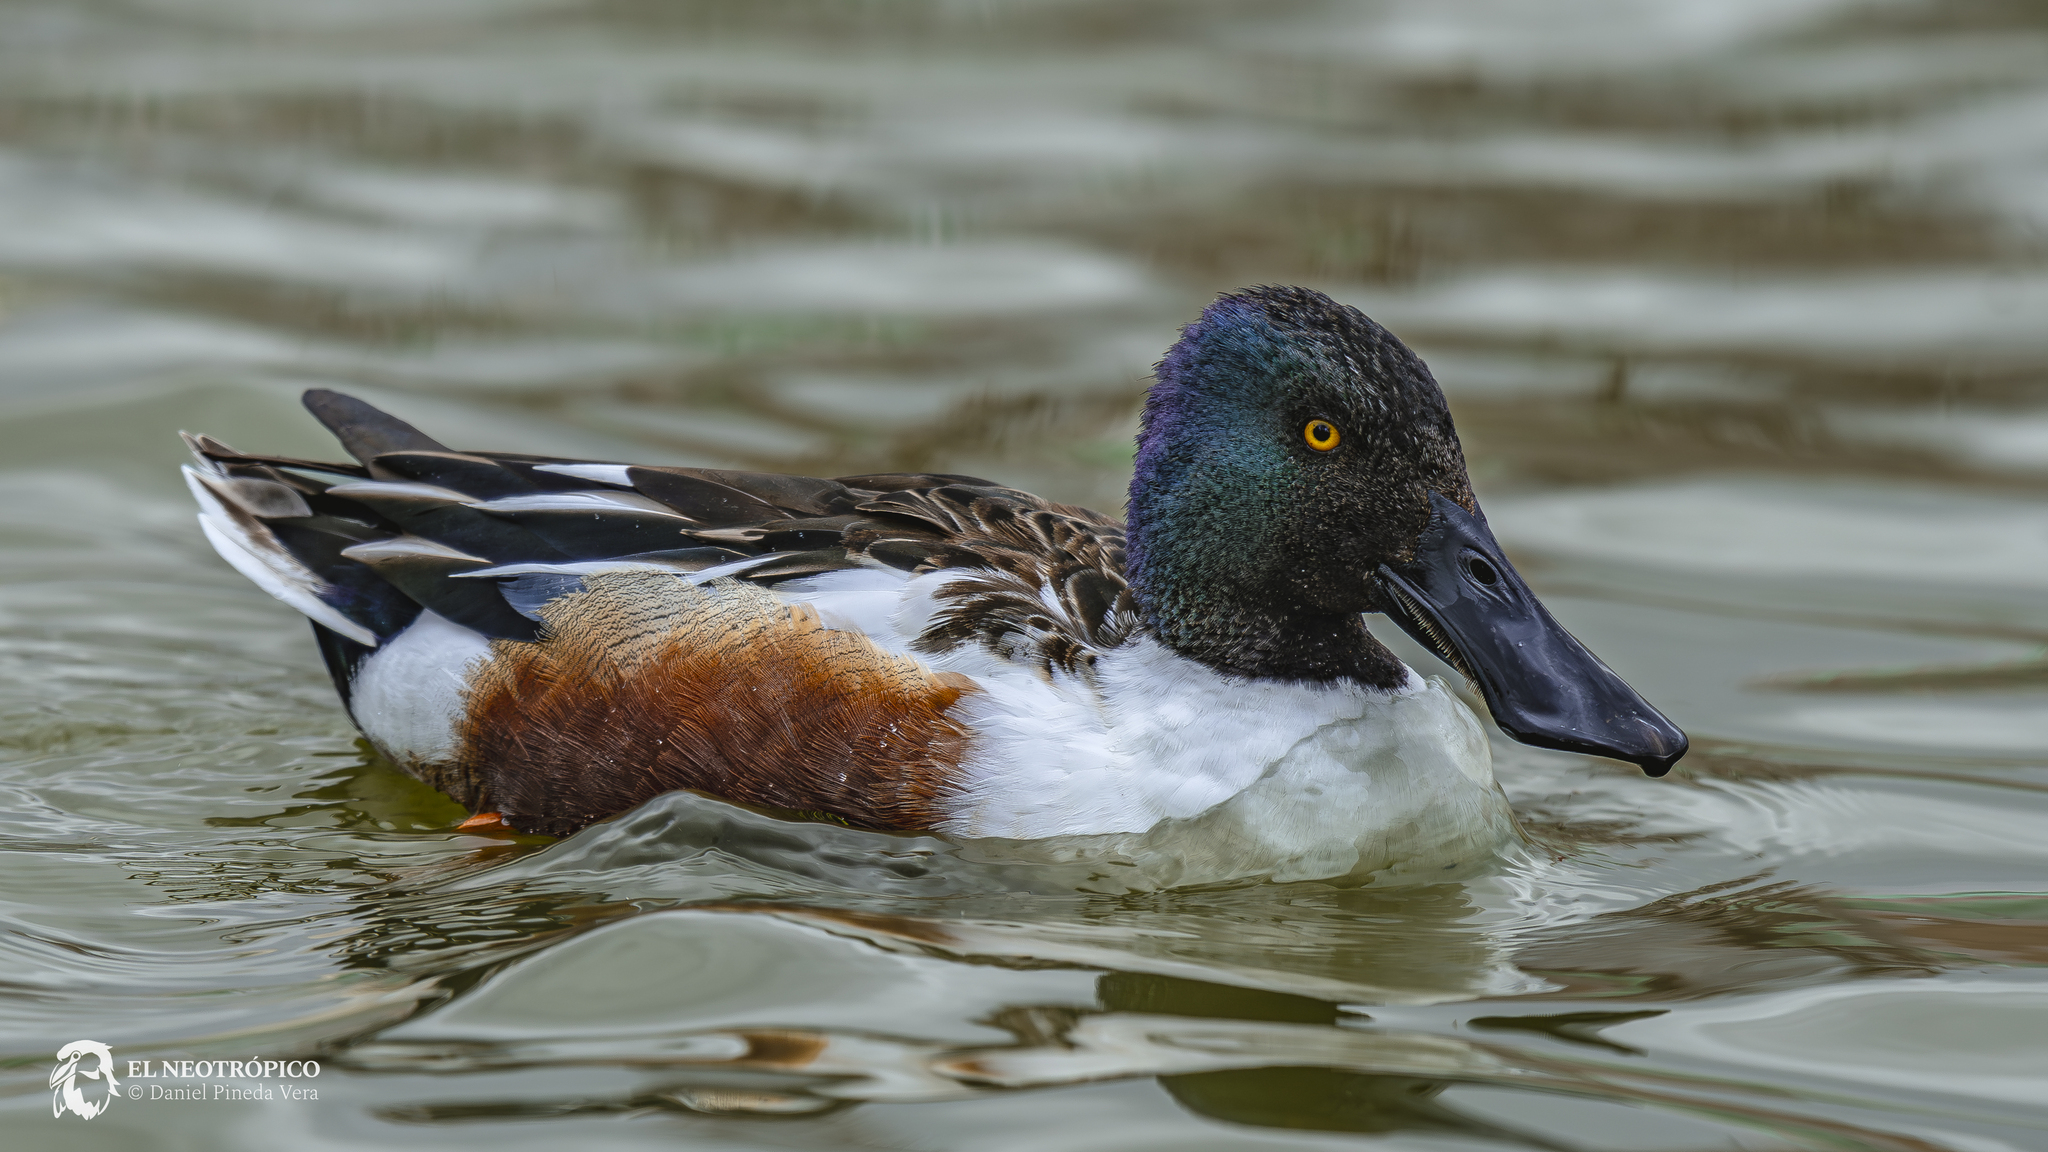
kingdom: Animalia
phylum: Chordata
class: Aves
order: Anseriformes
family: Anatidae
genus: Spatula
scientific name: Spatula clypeata
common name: Northern shoveler
